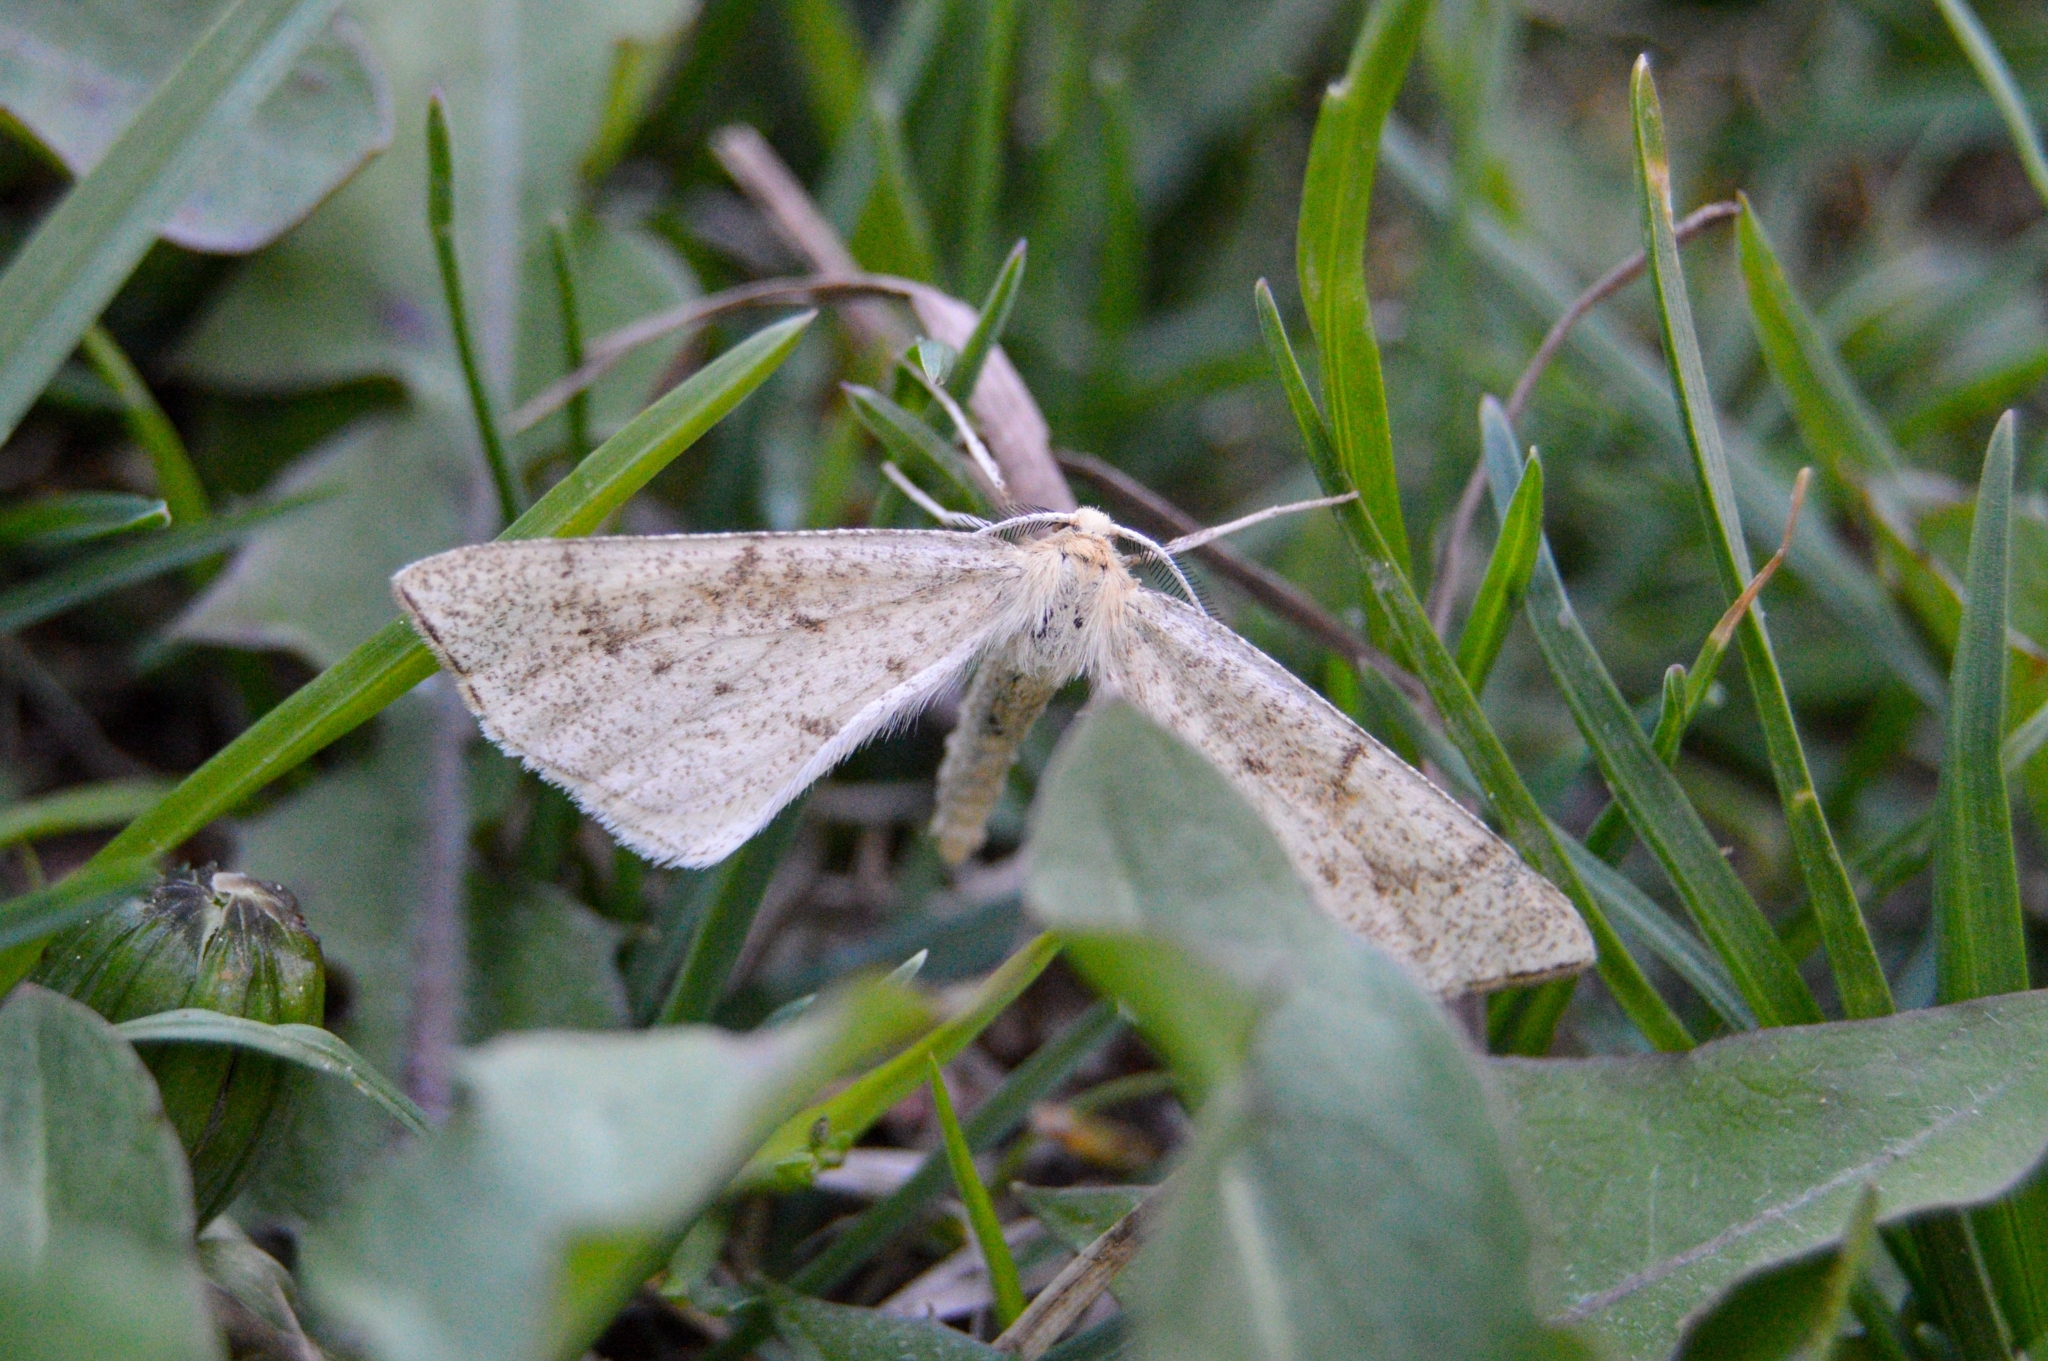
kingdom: Animalia
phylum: Arthropoda
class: Insecta
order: Lepidoptera
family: Geometridae
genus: Hypoxystis
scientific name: Hypoxystis pluviaria
